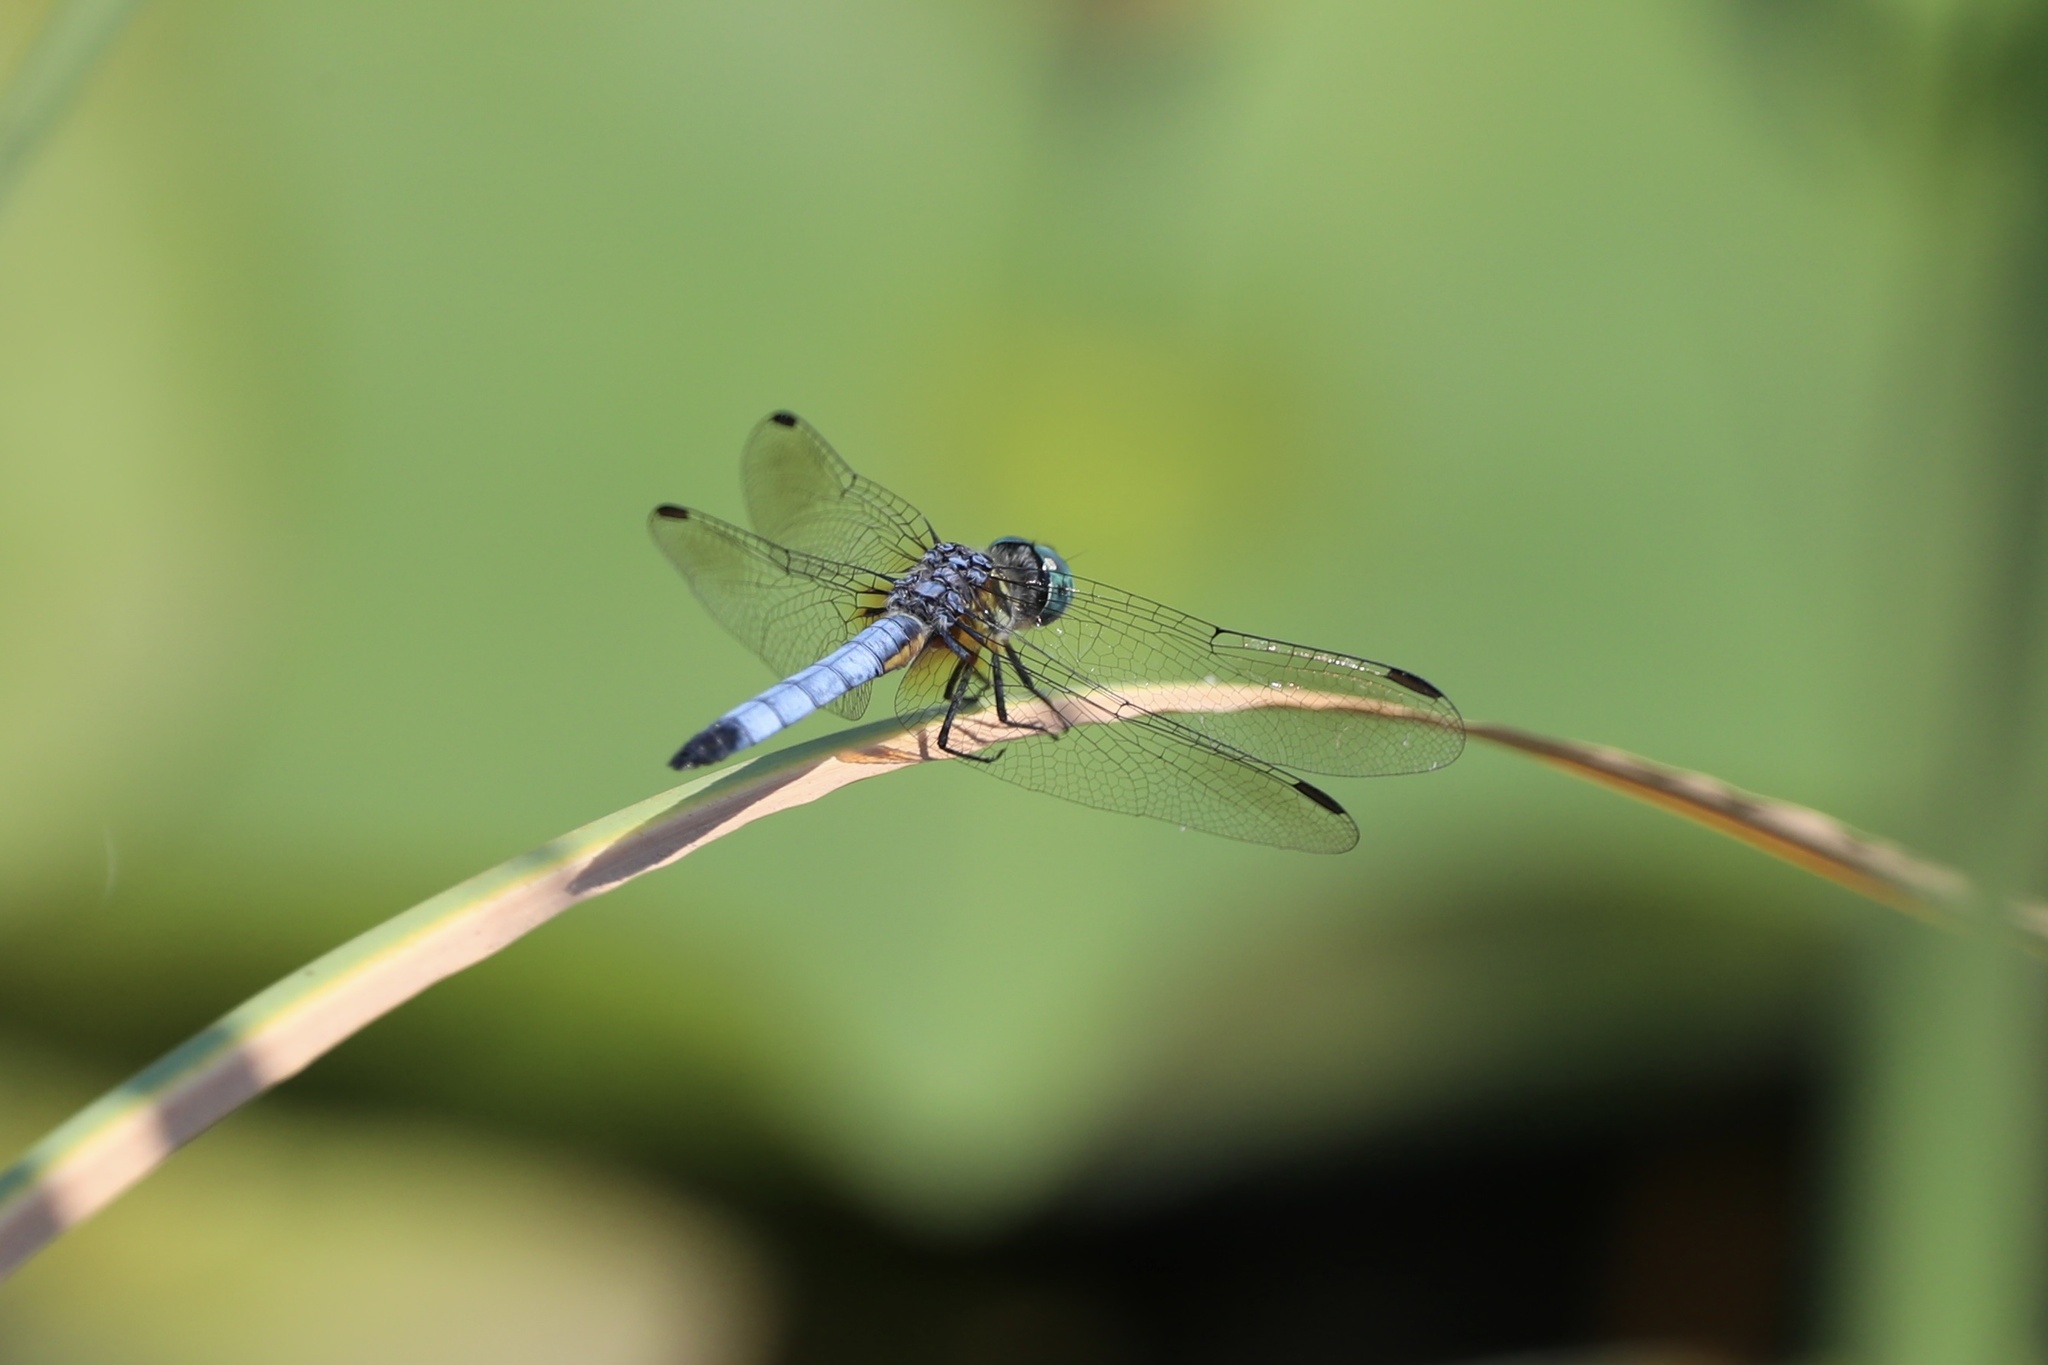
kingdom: Animalia
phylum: Arthropoda
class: Insecta
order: Odonata
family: Libellulidae
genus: Pachydiplax
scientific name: Pachydiplax longipennis
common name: Blue dasher
